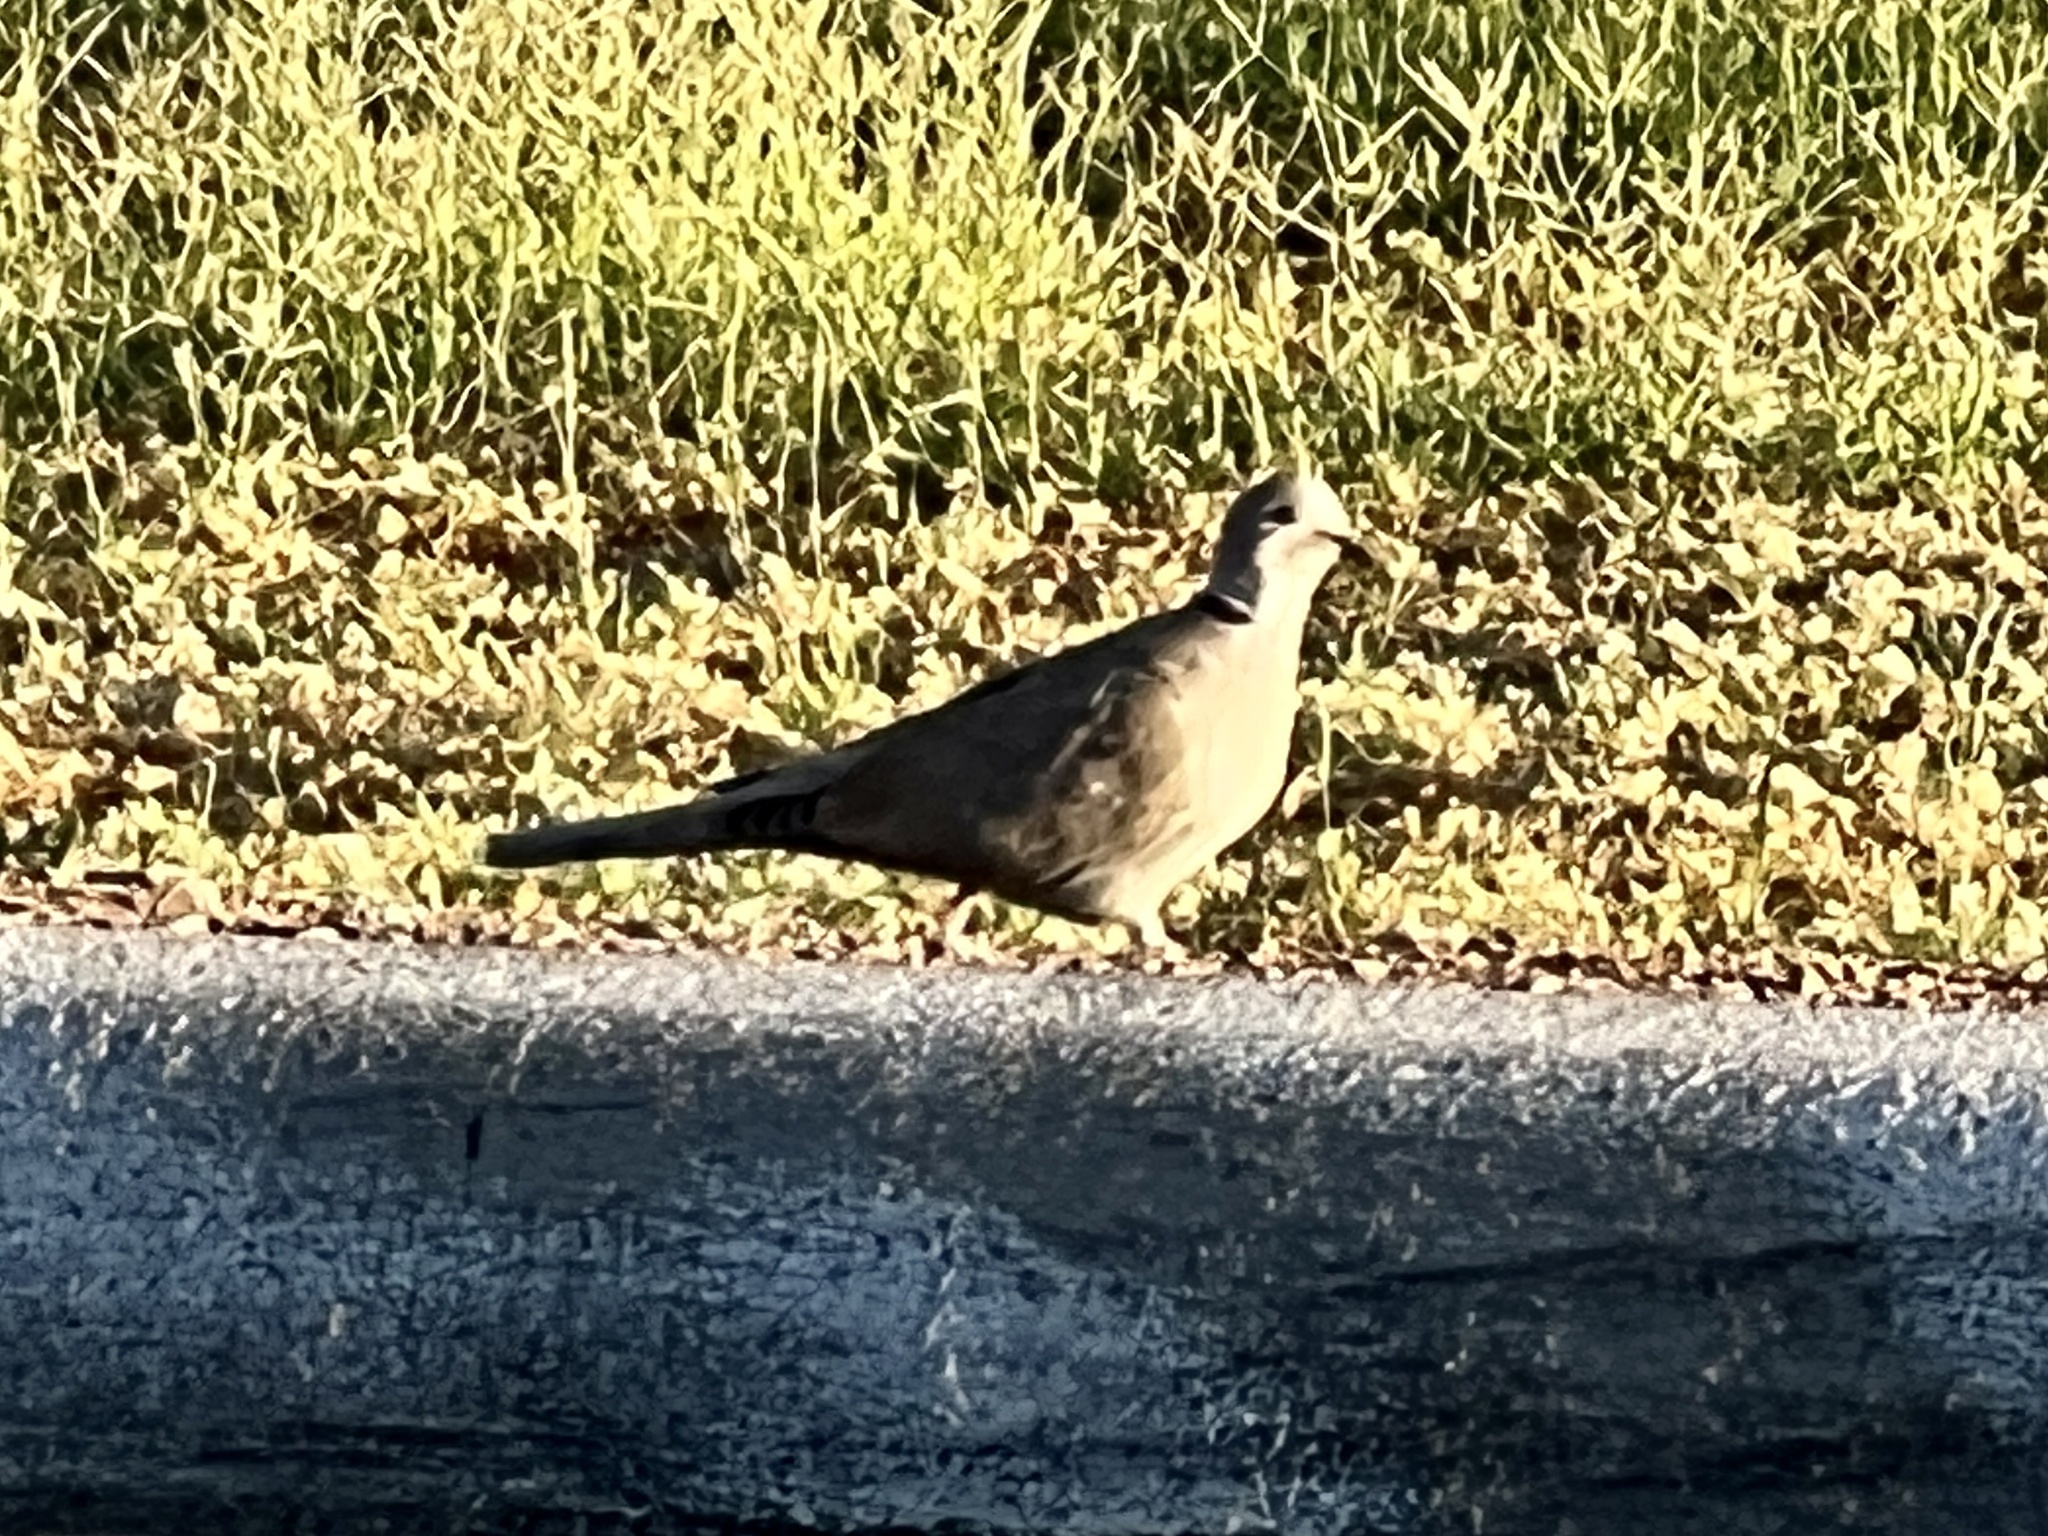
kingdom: Animalia
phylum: Chordata
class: Aves
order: Columbiformes
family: Columbidae
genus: Streptopelia
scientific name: Streptopelia decaocto
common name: Eurasian collared dove
